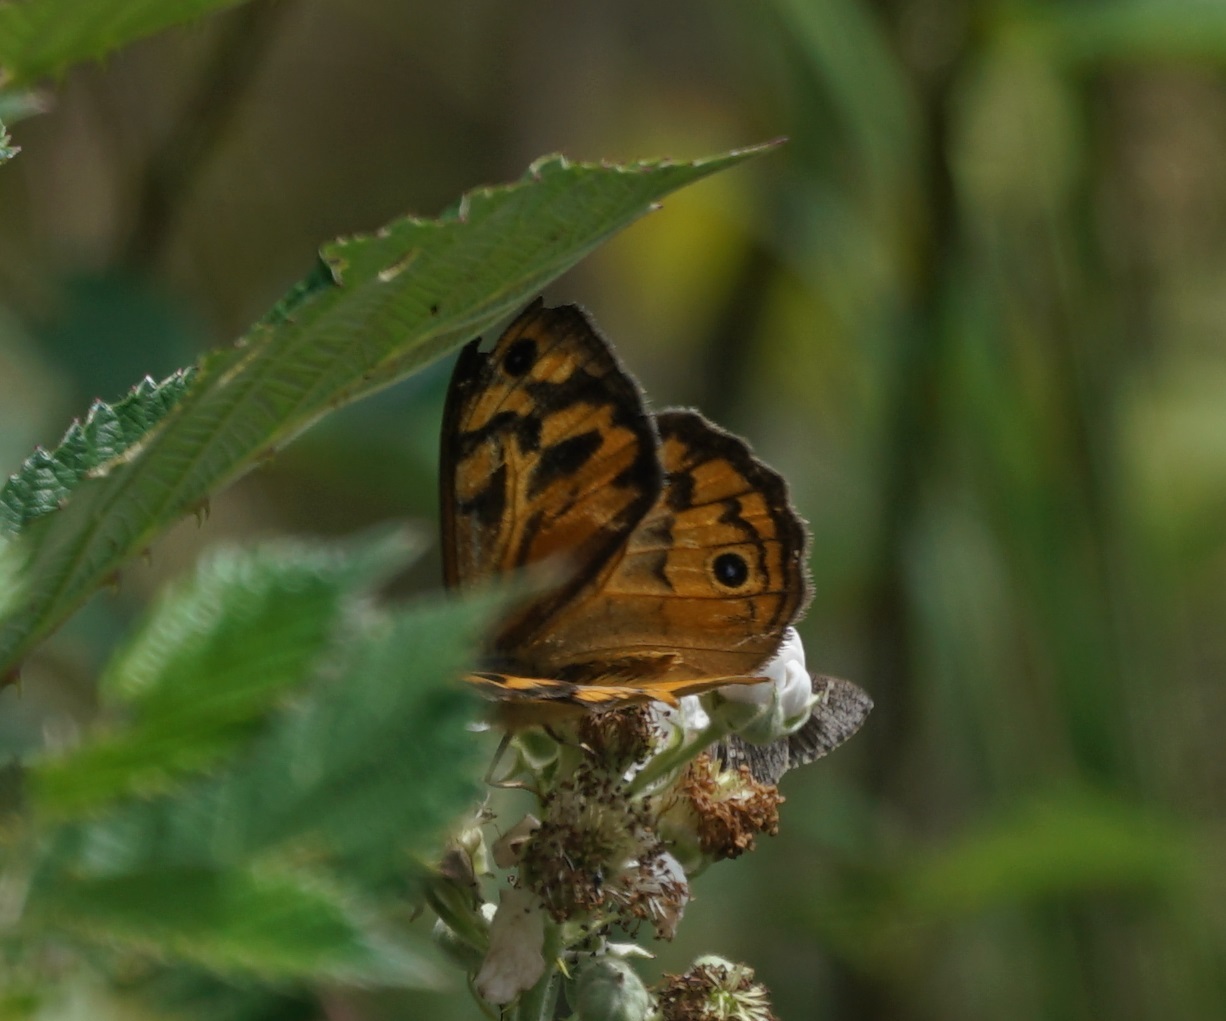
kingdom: Animalia
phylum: Arthropoda
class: Insecta
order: Lepidoptera
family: Nymphalidae
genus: Heteronympha
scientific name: Heteronympha merope
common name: Common brown
